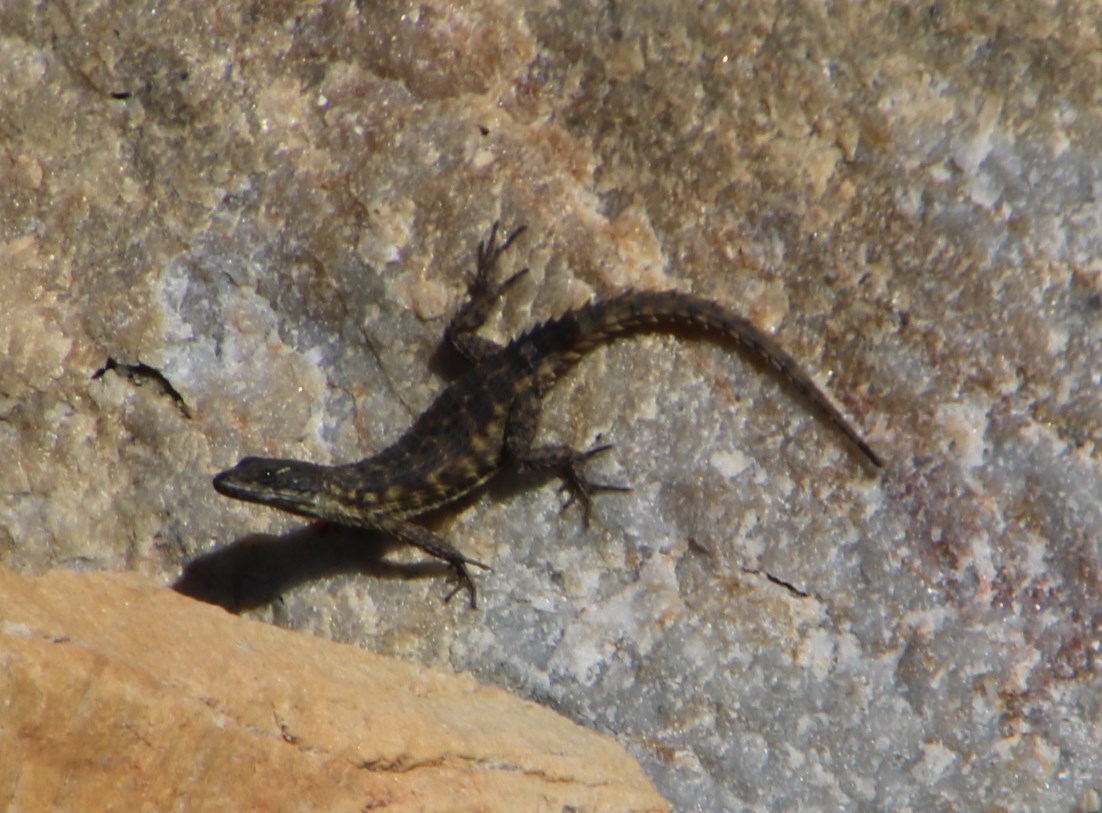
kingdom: Animalia
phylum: Chordata
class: Squamata
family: Cordylidae
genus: Cordylus
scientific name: Cordylus cordylus
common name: Cape girdled lizard
